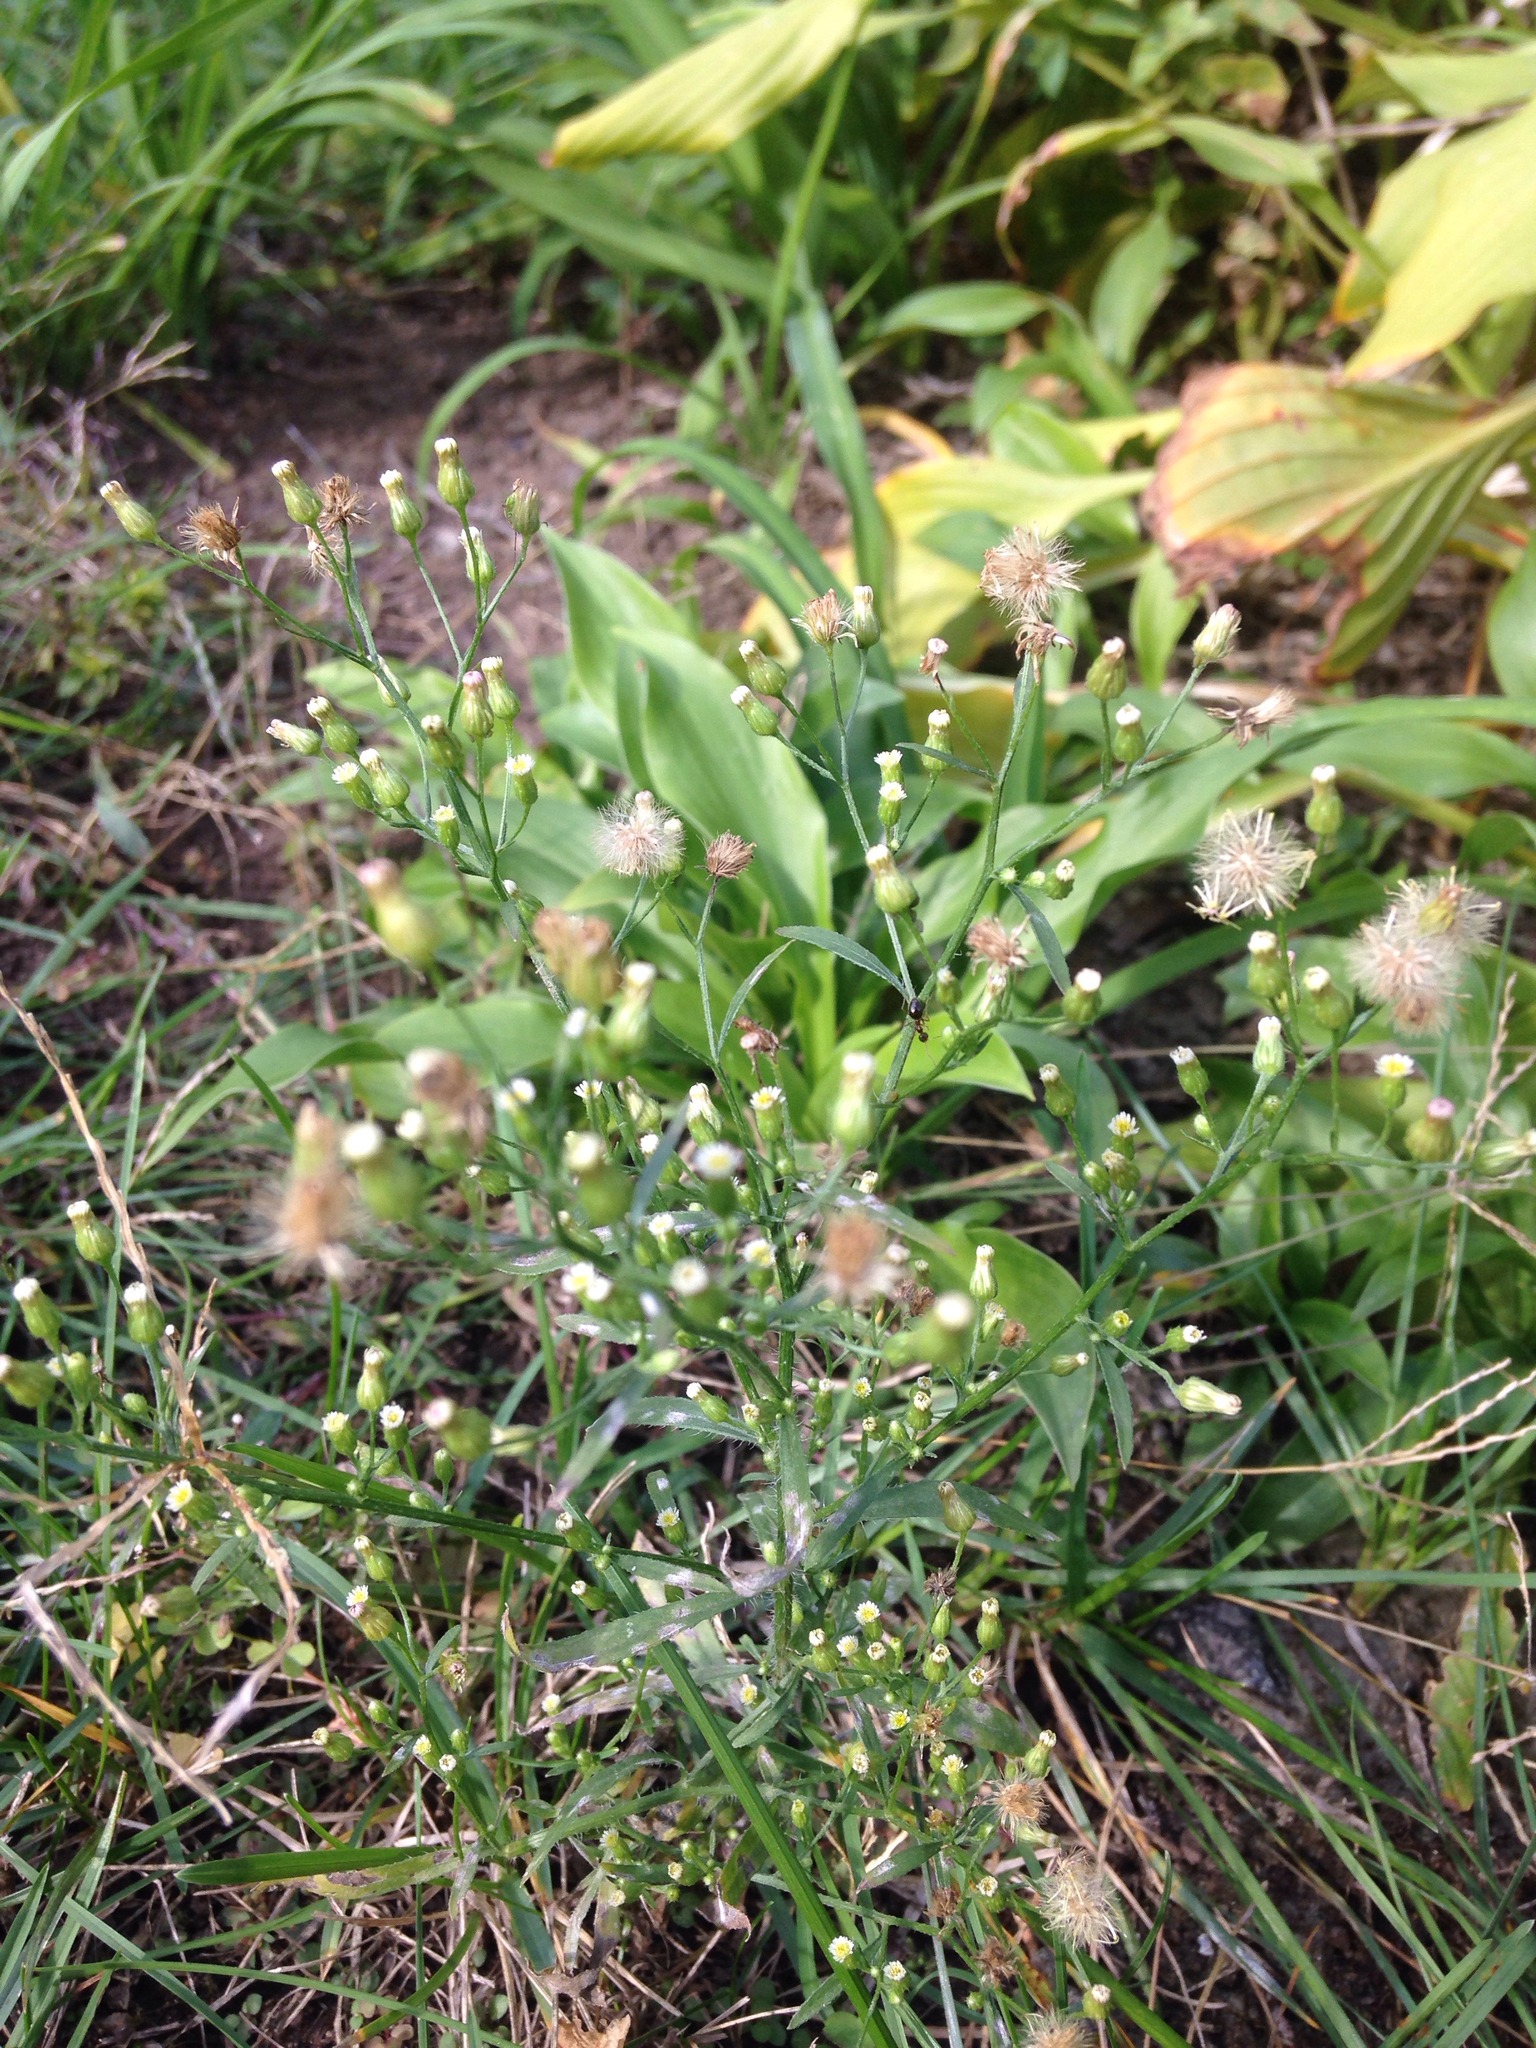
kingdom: Plantae
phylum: Tracheophyta
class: Magnoliopsida
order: Asterales
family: Asteraceae
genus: Erigeron
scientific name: Erigeron canadensis
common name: Canadian fleabane
